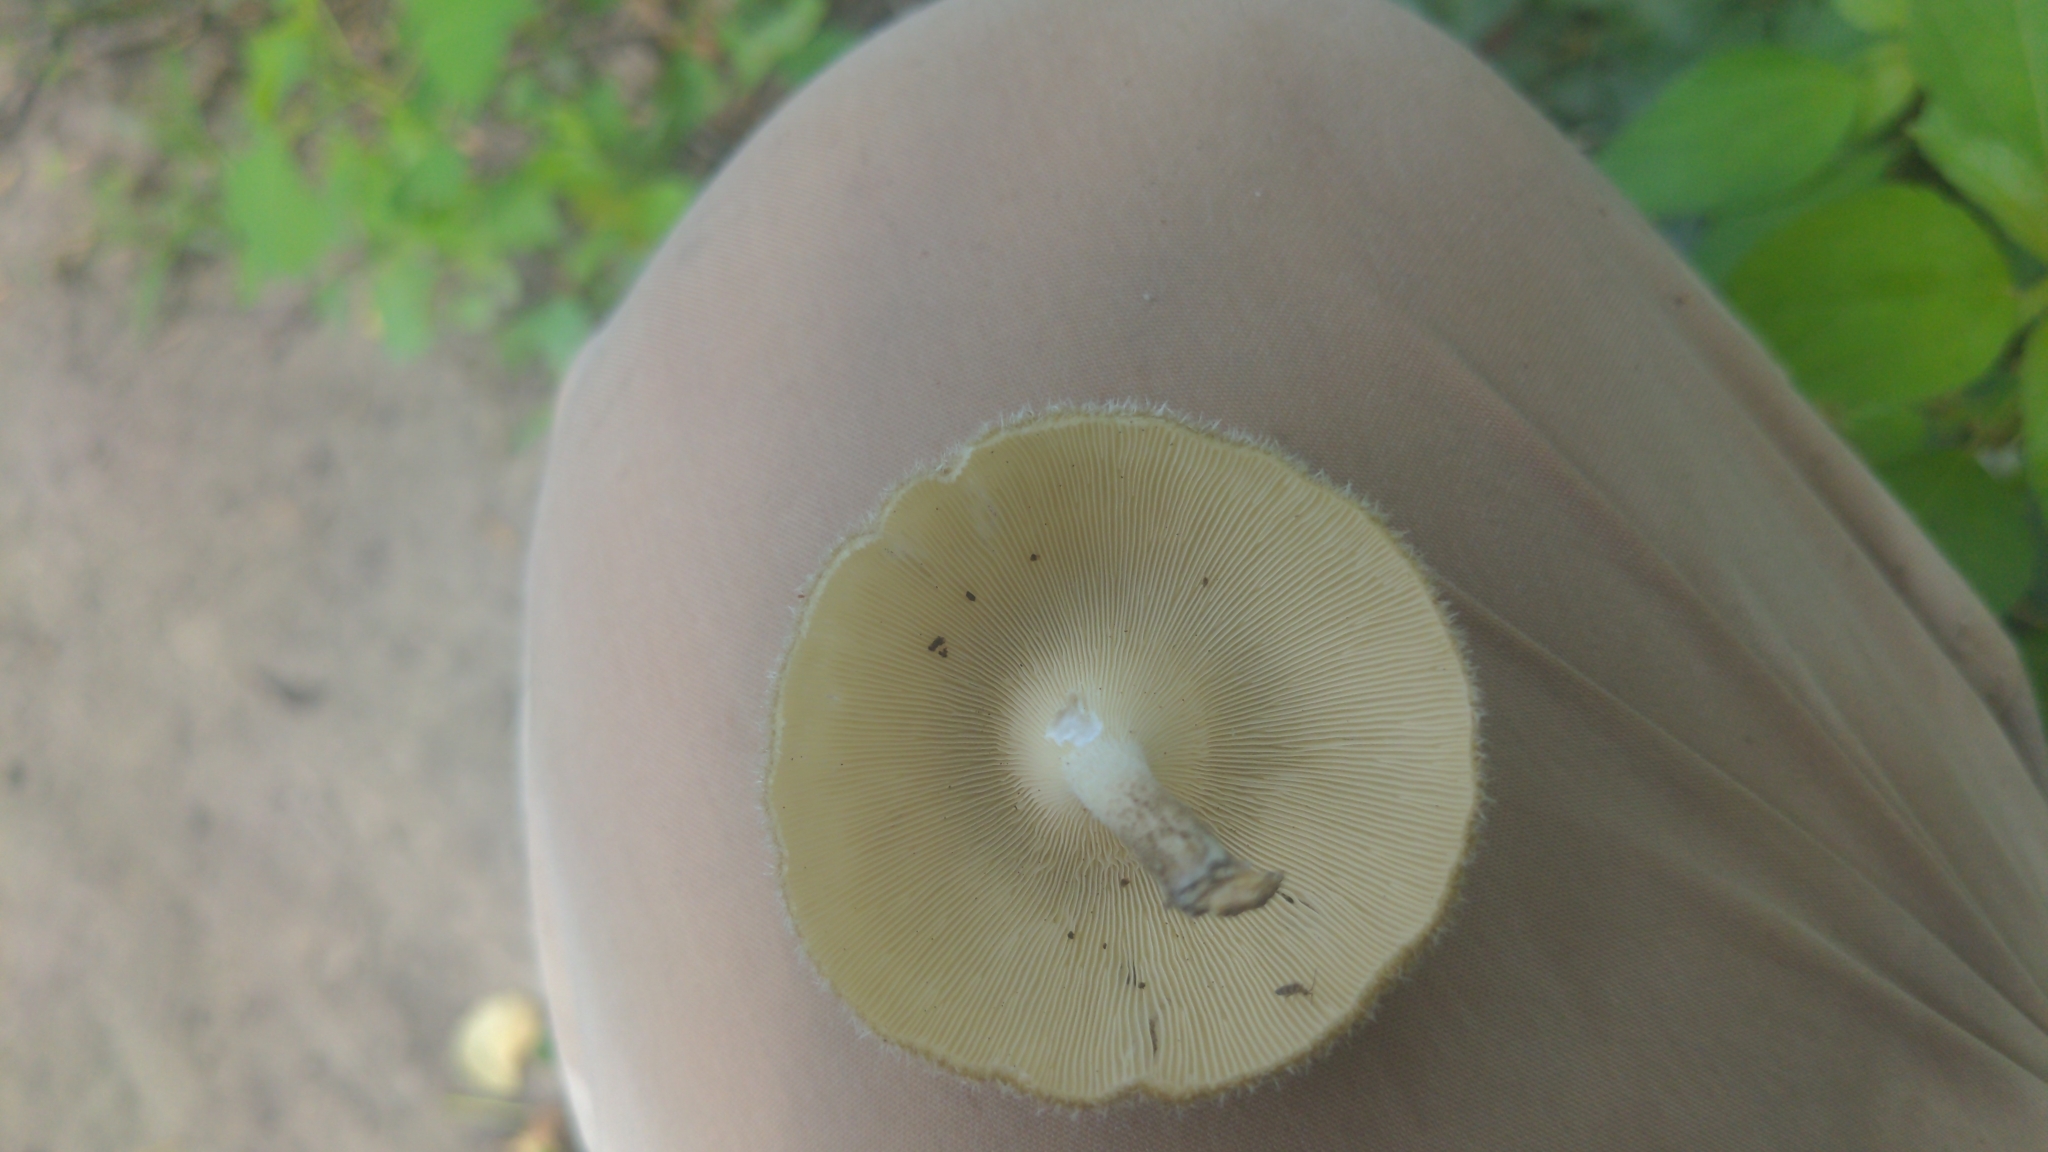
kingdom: Fungi
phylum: Basidiomycota
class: Agaricomycetes
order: Polyporales
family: Polyporaceae
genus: Lentinus
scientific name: Lentinus crinitus
